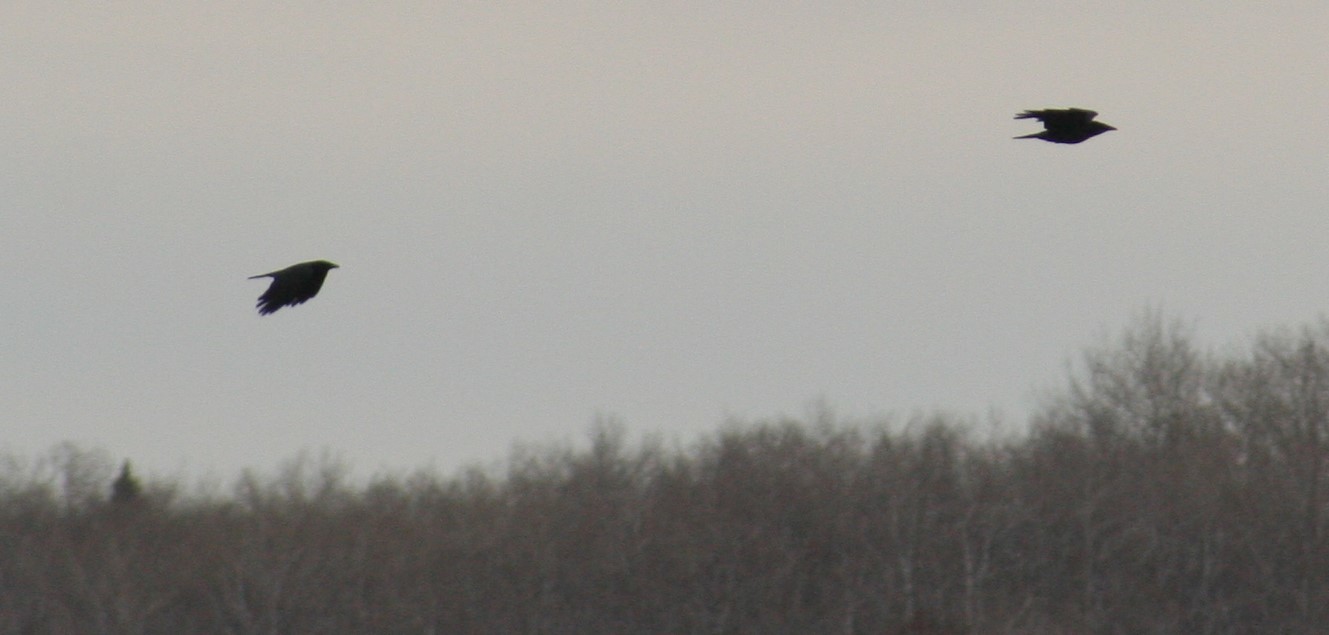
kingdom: Animalia
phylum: Chordata
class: Aves
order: Passeriformes
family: Corvidae
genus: Corvus
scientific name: Corvus brachyrhynchos
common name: American crow
